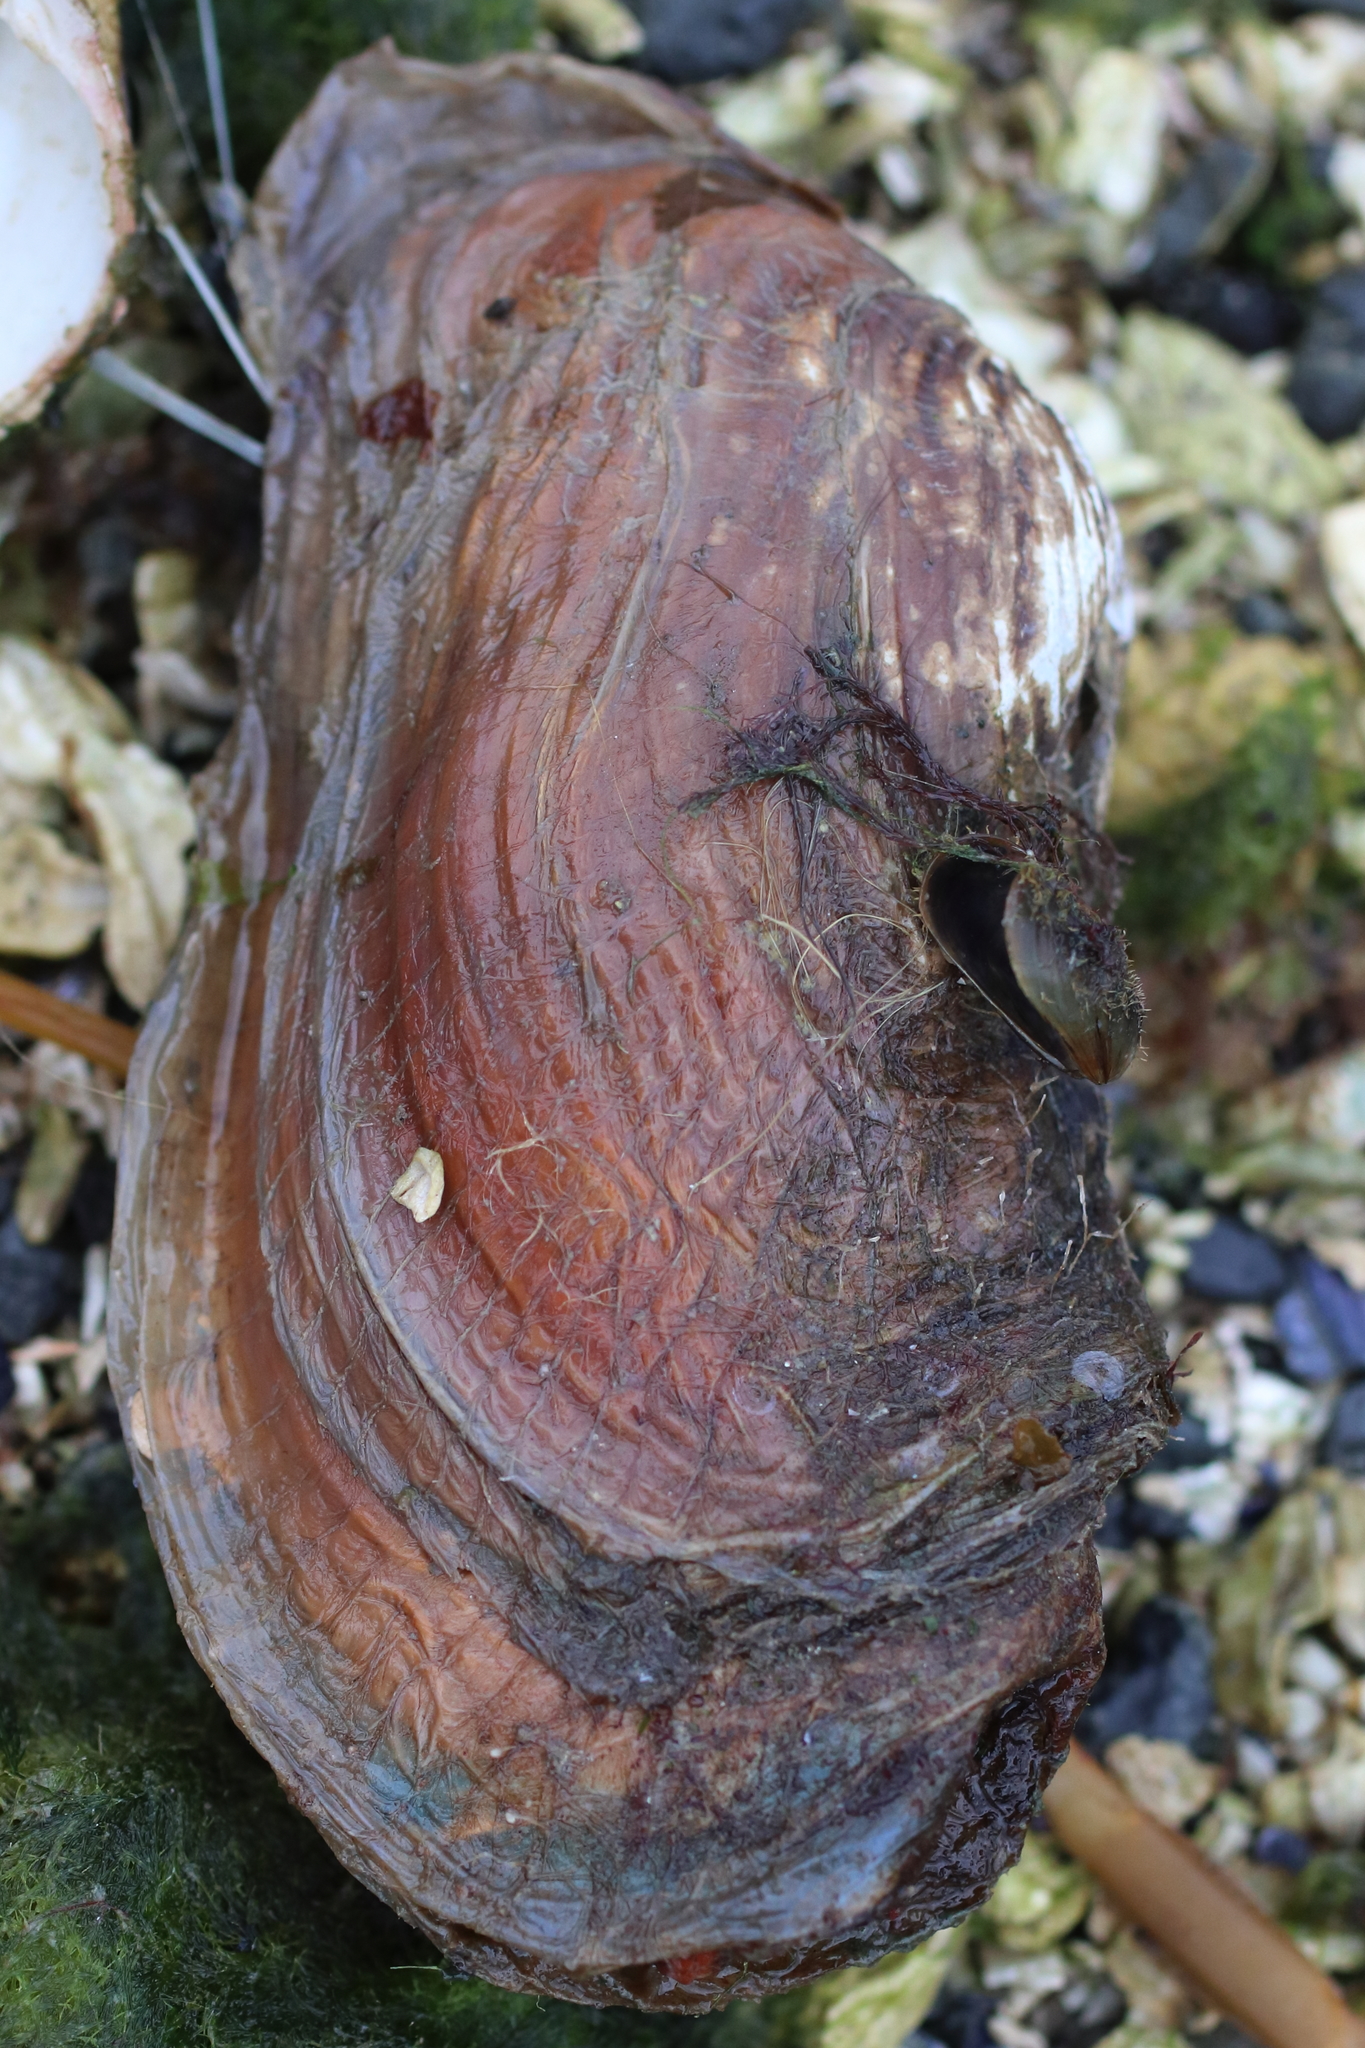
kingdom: Animalia
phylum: Mollusca
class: Bivalvia
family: Lyonsiidae
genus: Entodesma
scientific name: Entodesma navicula
